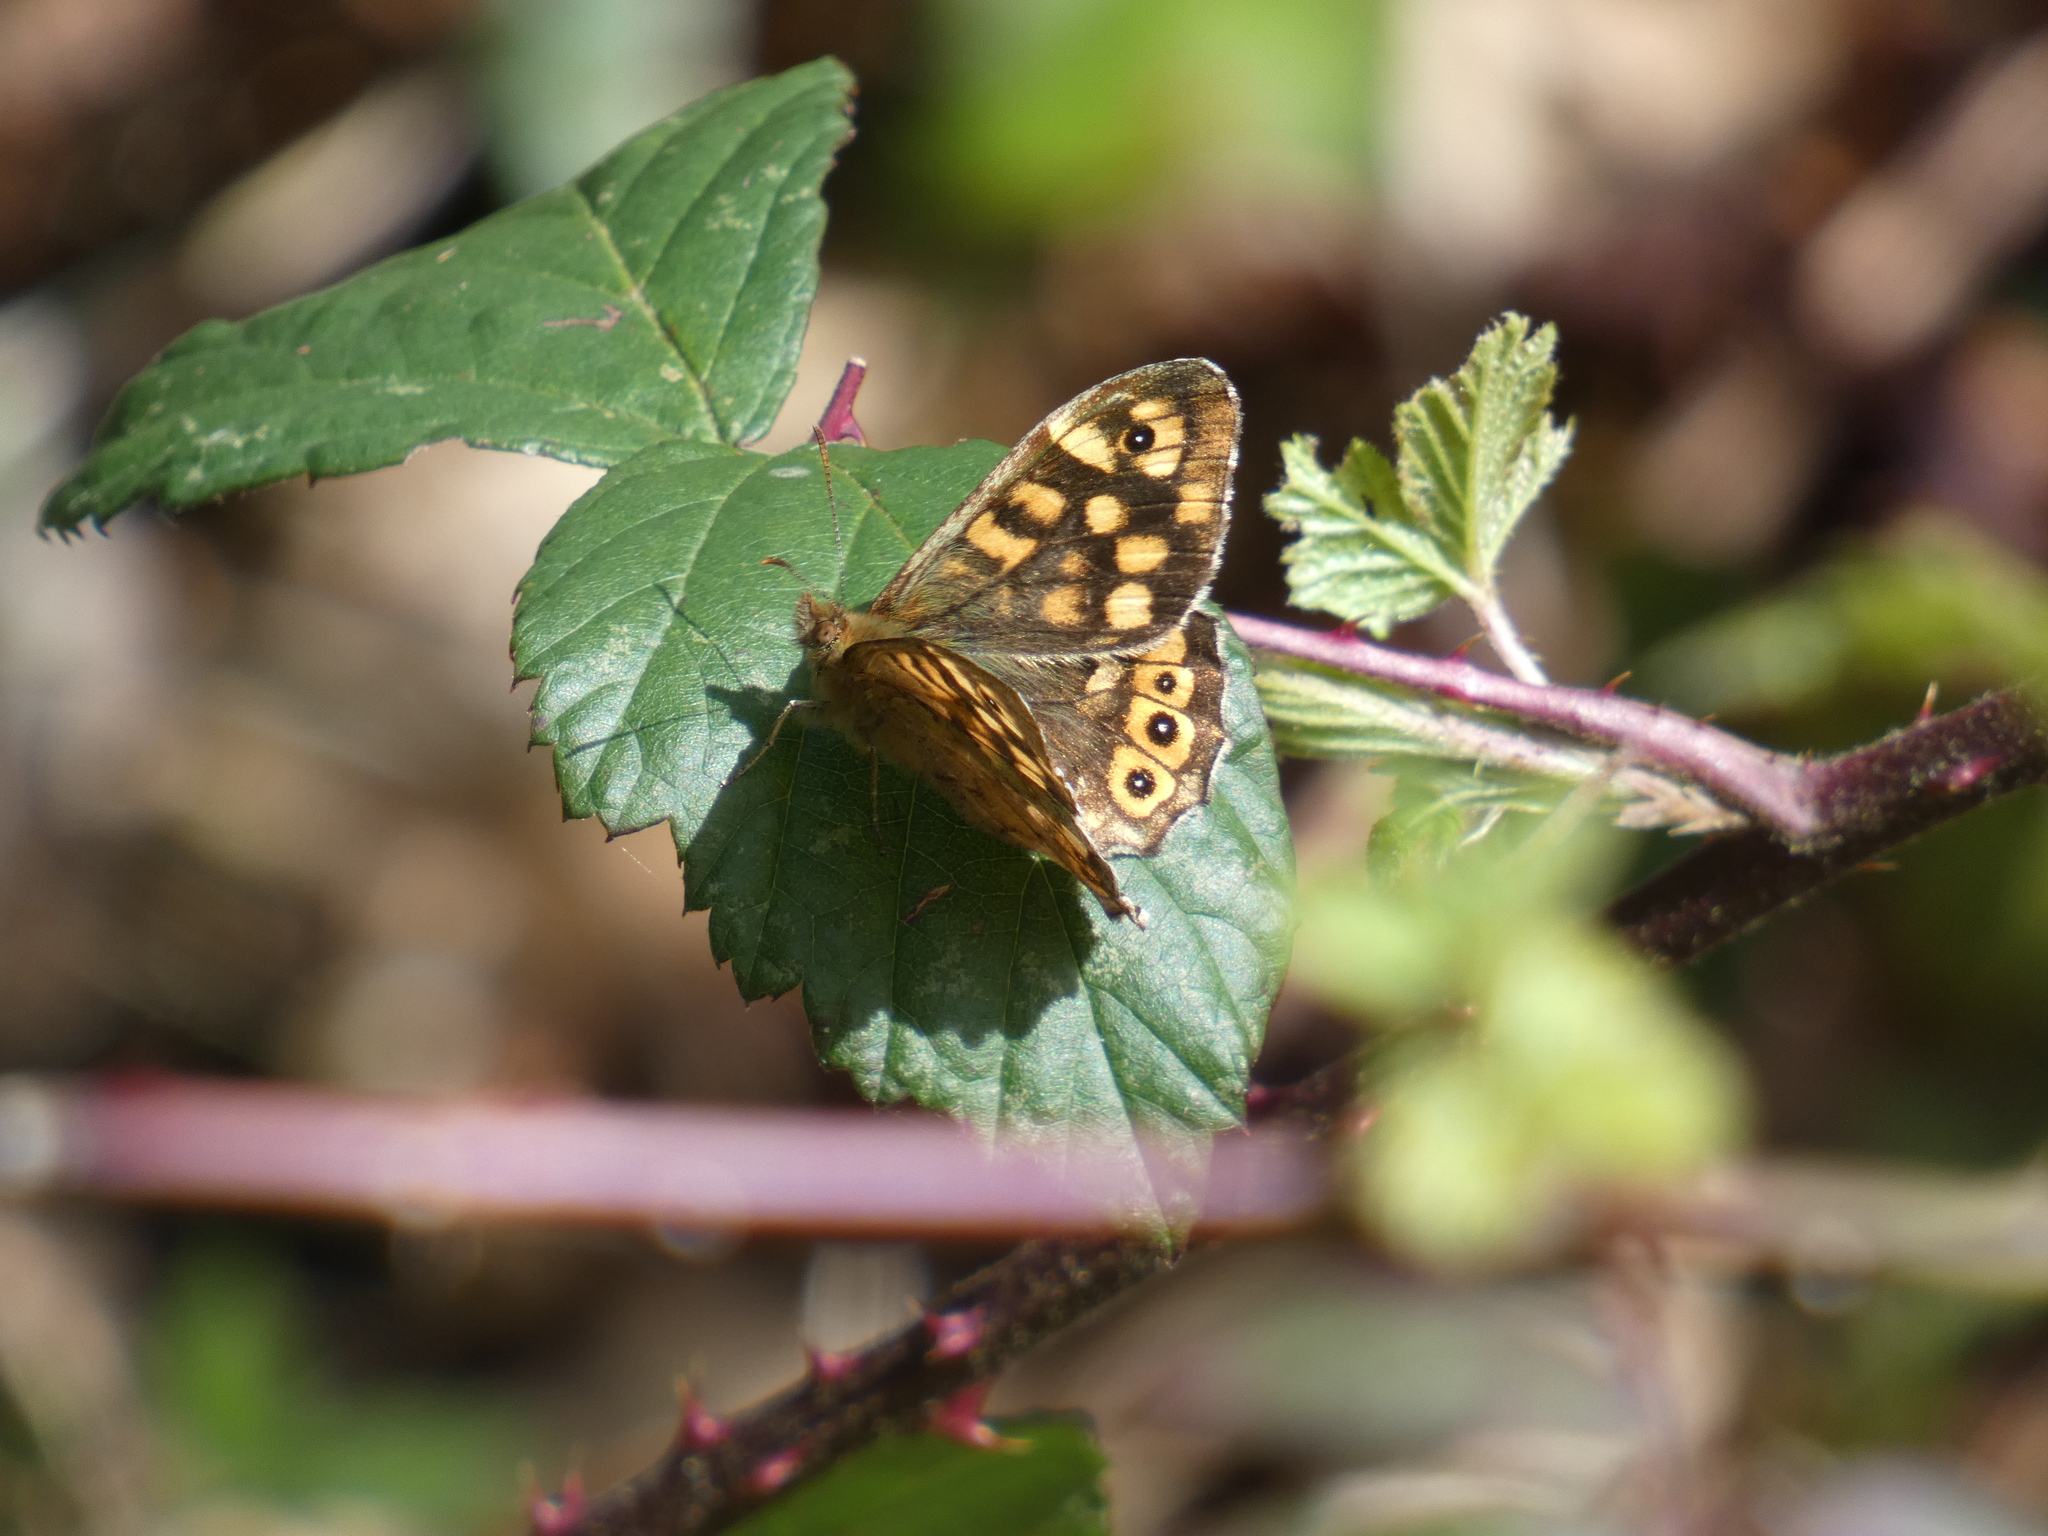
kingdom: Animalia
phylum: Arthropoda
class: Insecta
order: Lepidoptera
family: Nymphalidae
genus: Pararge
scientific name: Pararge aegeria
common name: Speckled wood
